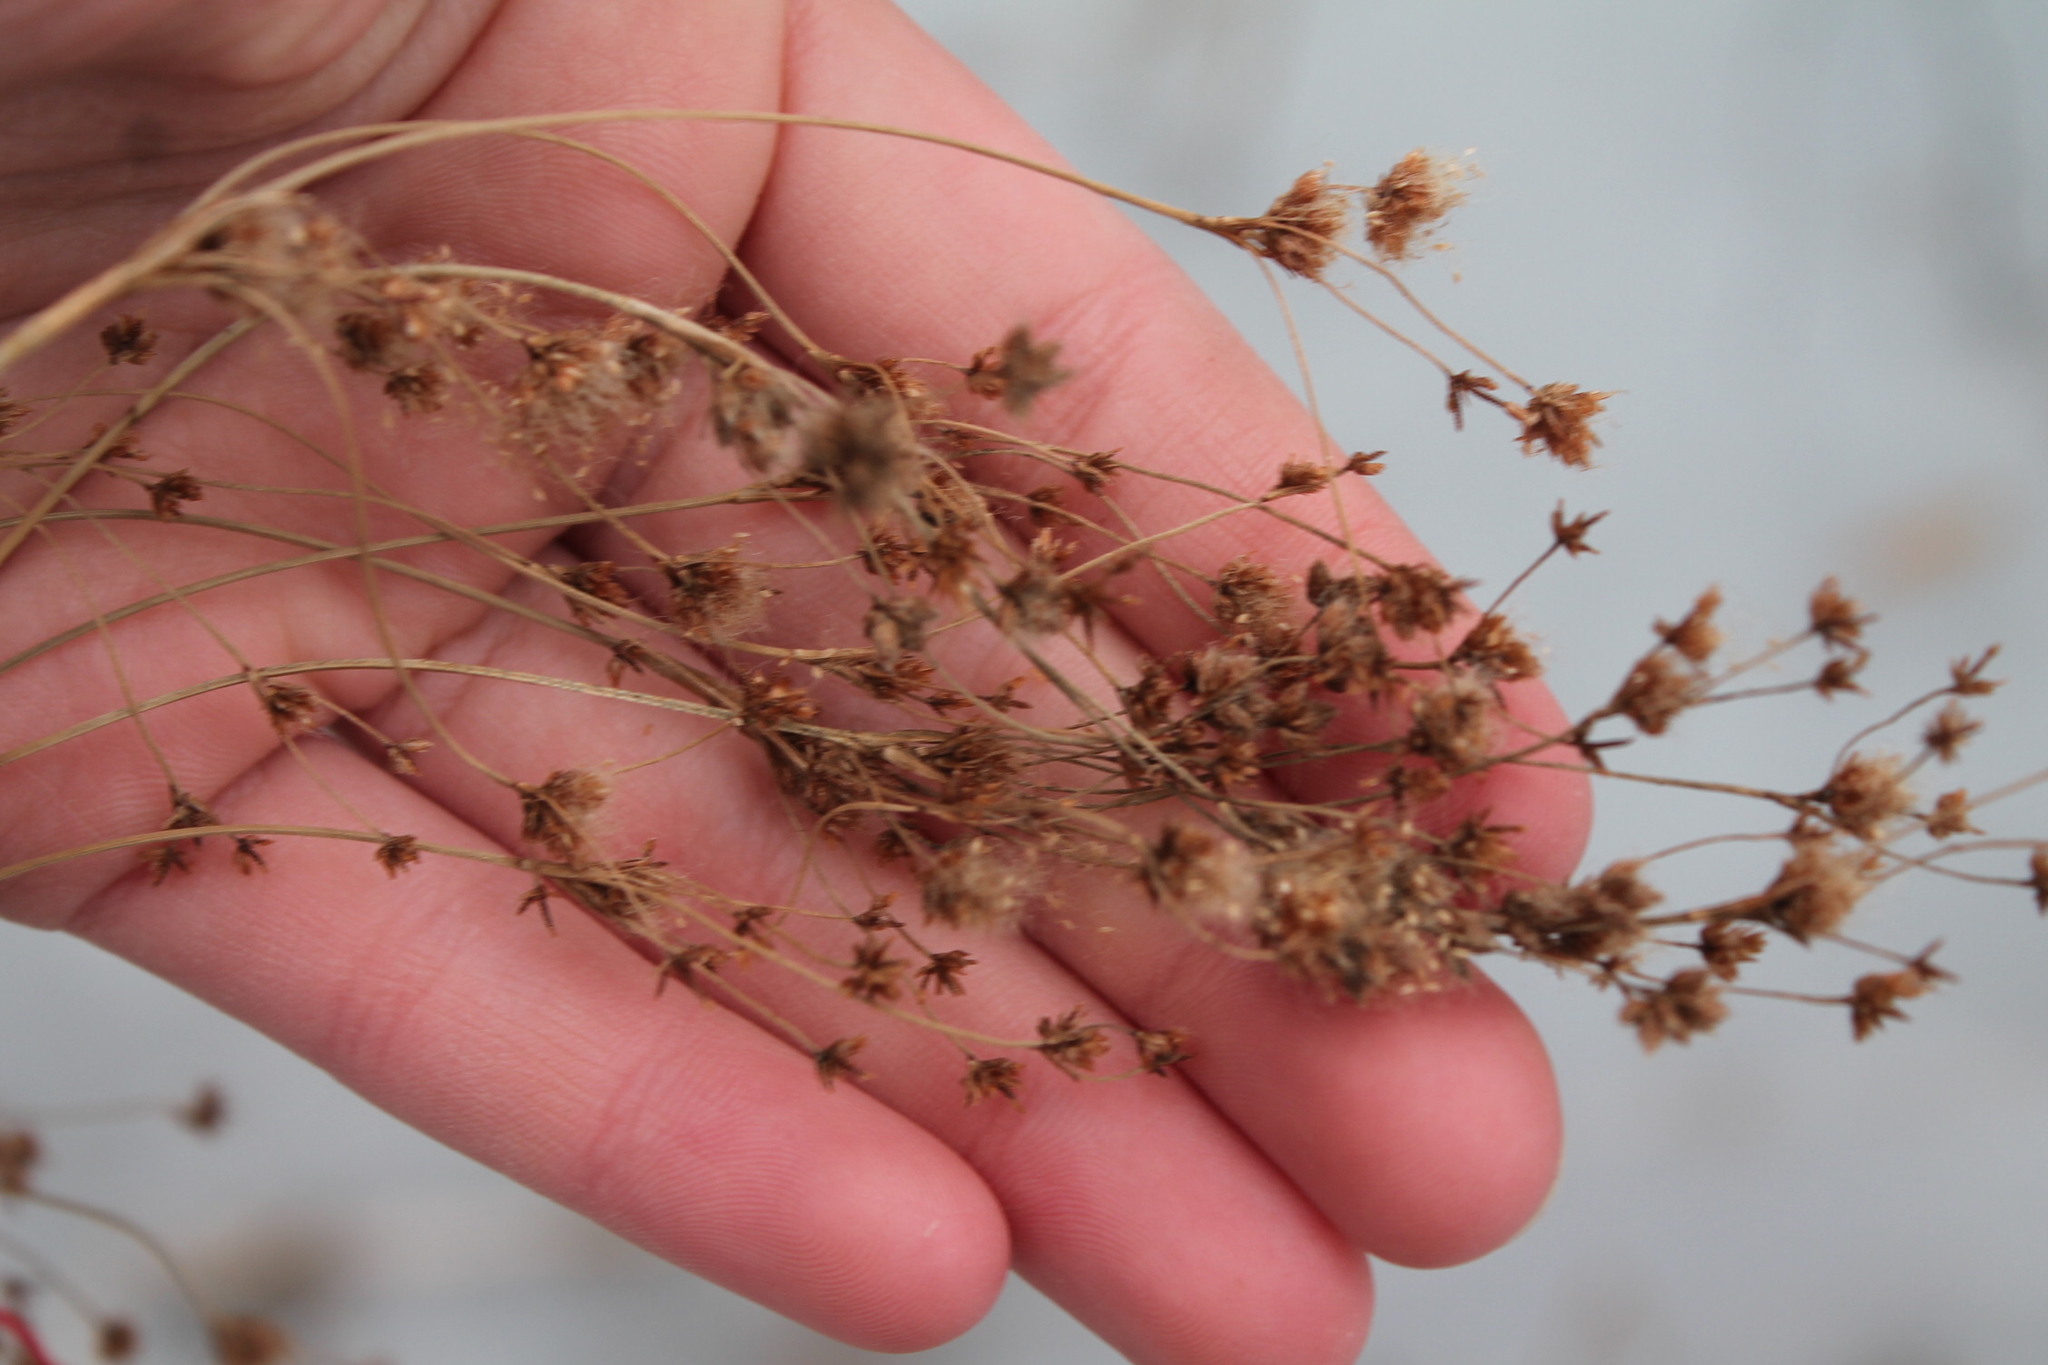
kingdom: Plantae
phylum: Tracheophyta
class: Liliopsida
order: Poales
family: Cyperaceae
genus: Scirpus
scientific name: Scirpus cyperinus
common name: Black-sheathed bulrush
